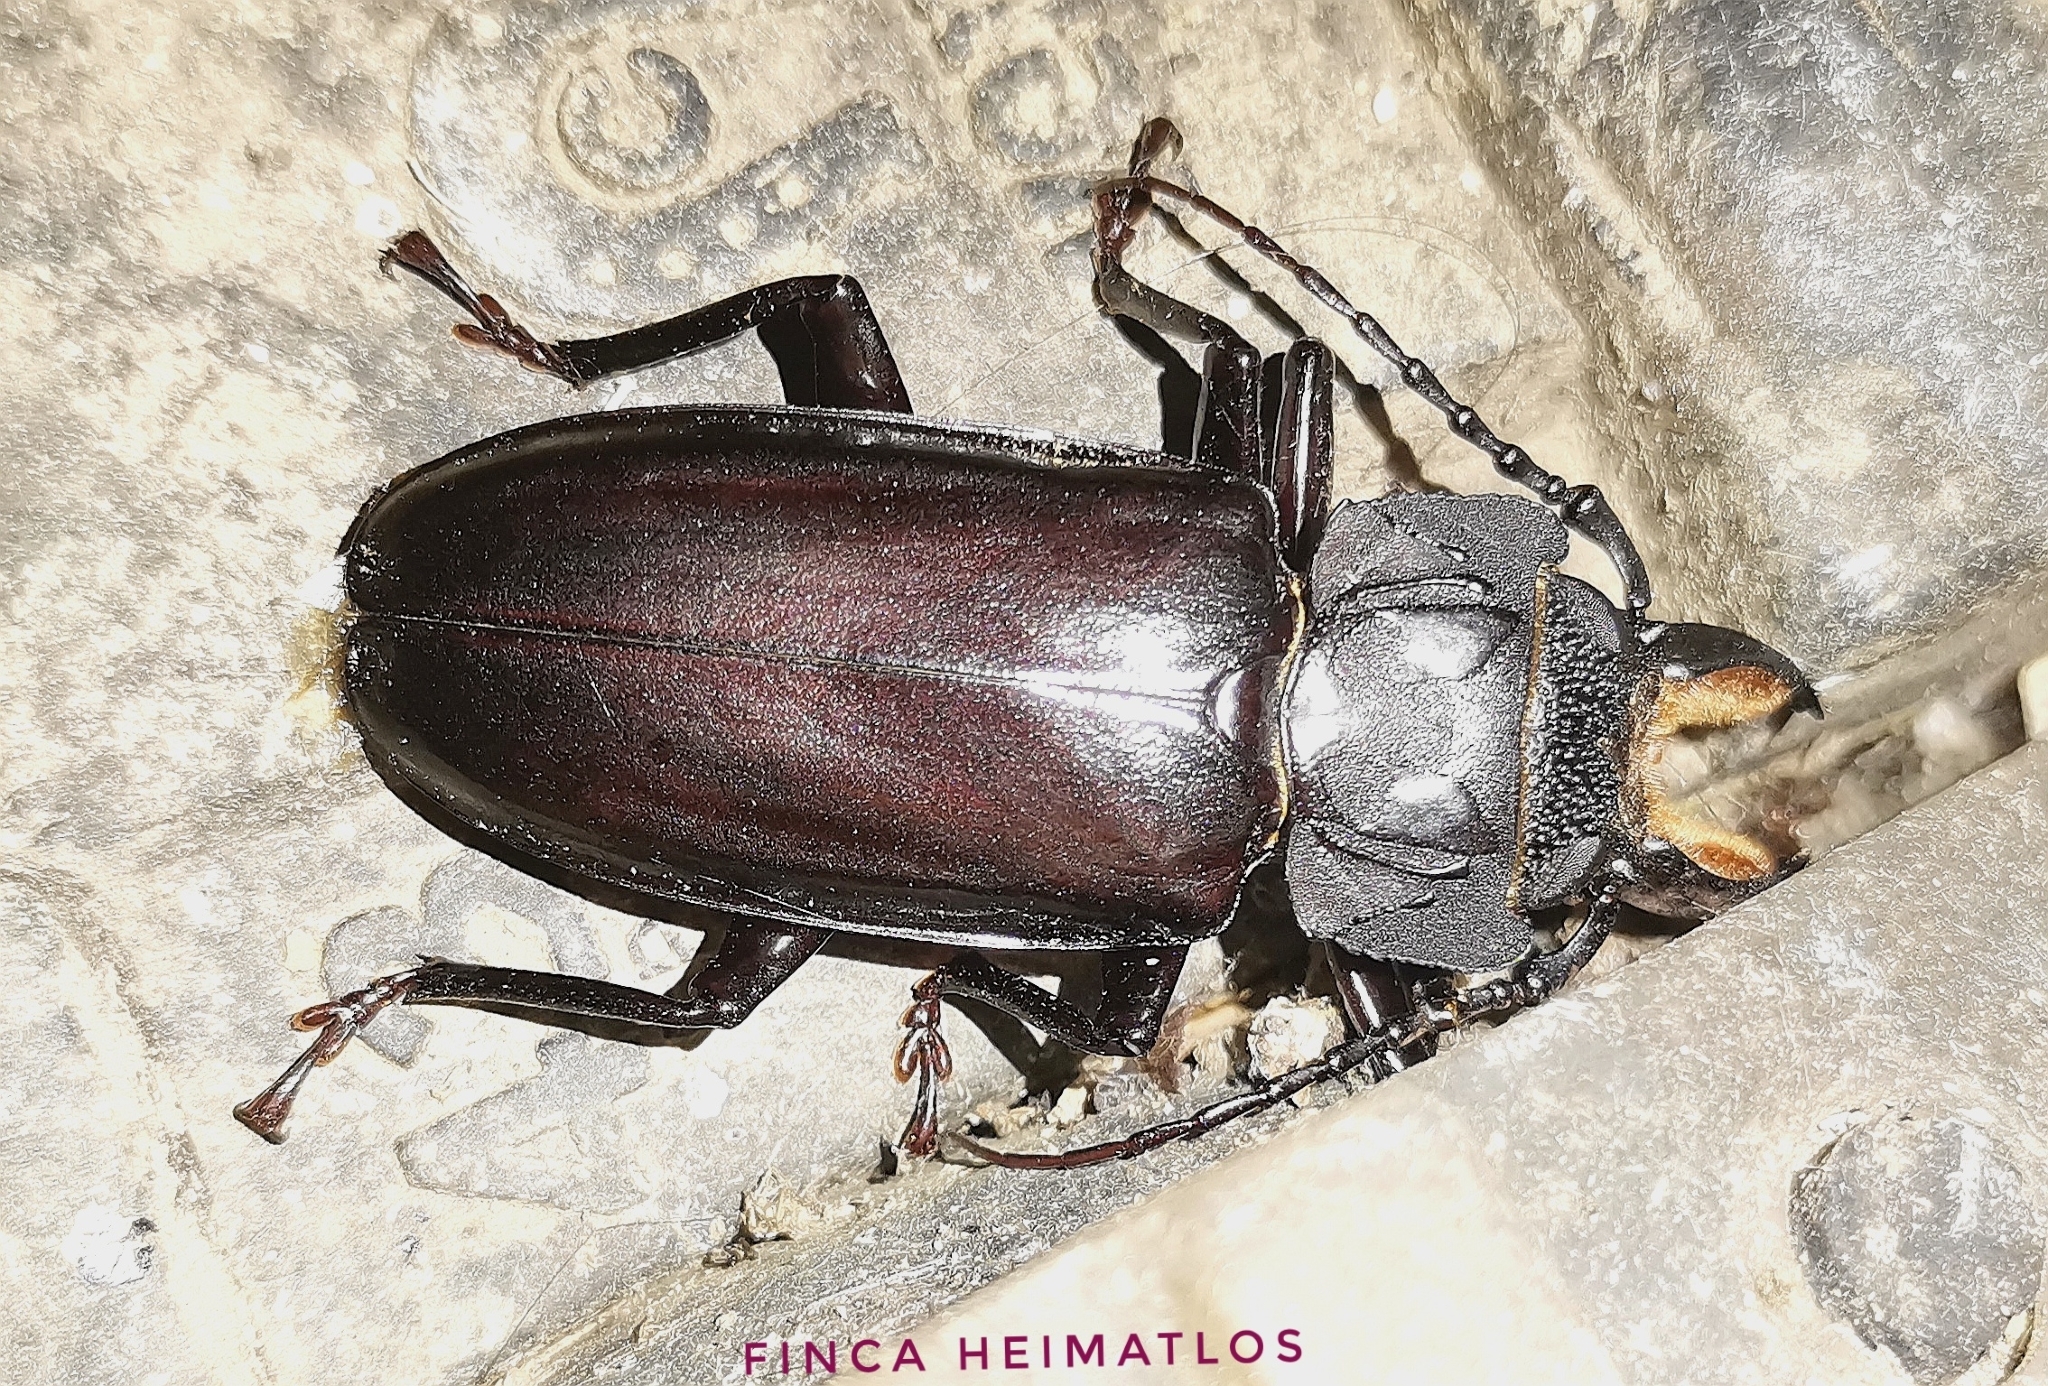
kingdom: Animalia
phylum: Arthropoda
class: Insecta
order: Coleoptera
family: Cerambycidae
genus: Mallodon
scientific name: Mallodon dasystomum
